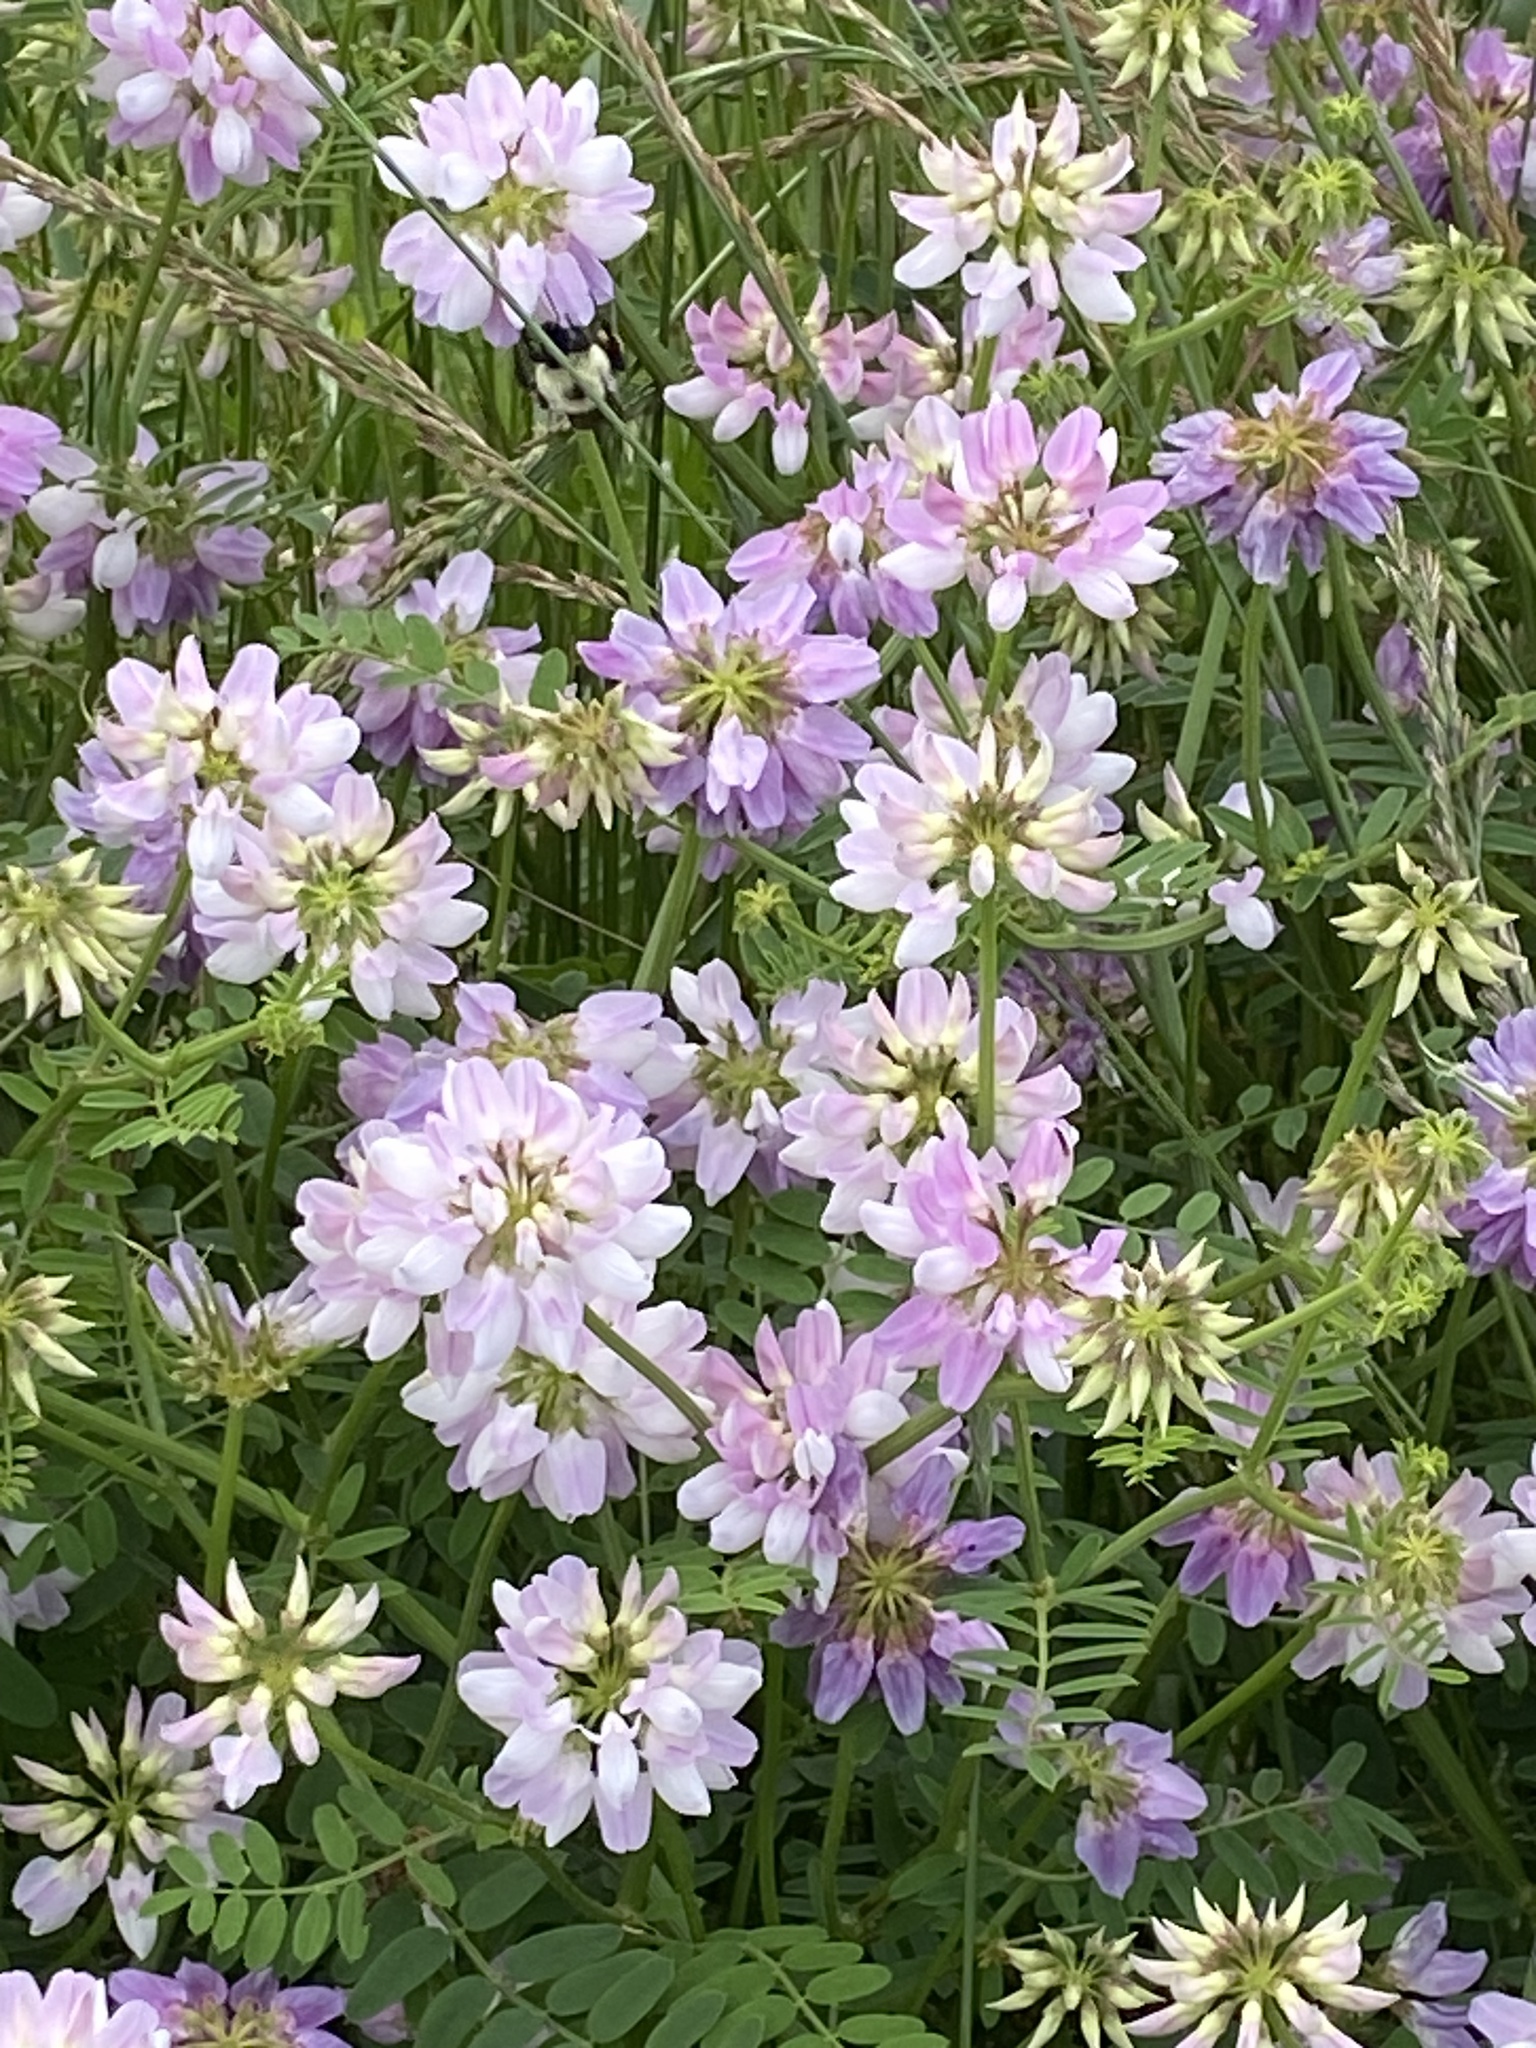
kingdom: Plantae
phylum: Tracheophyta
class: Magnoliopsida
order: Fabales
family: Fabaceae
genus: Coronilla
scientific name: Coronilla varia
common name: Crownvetch
